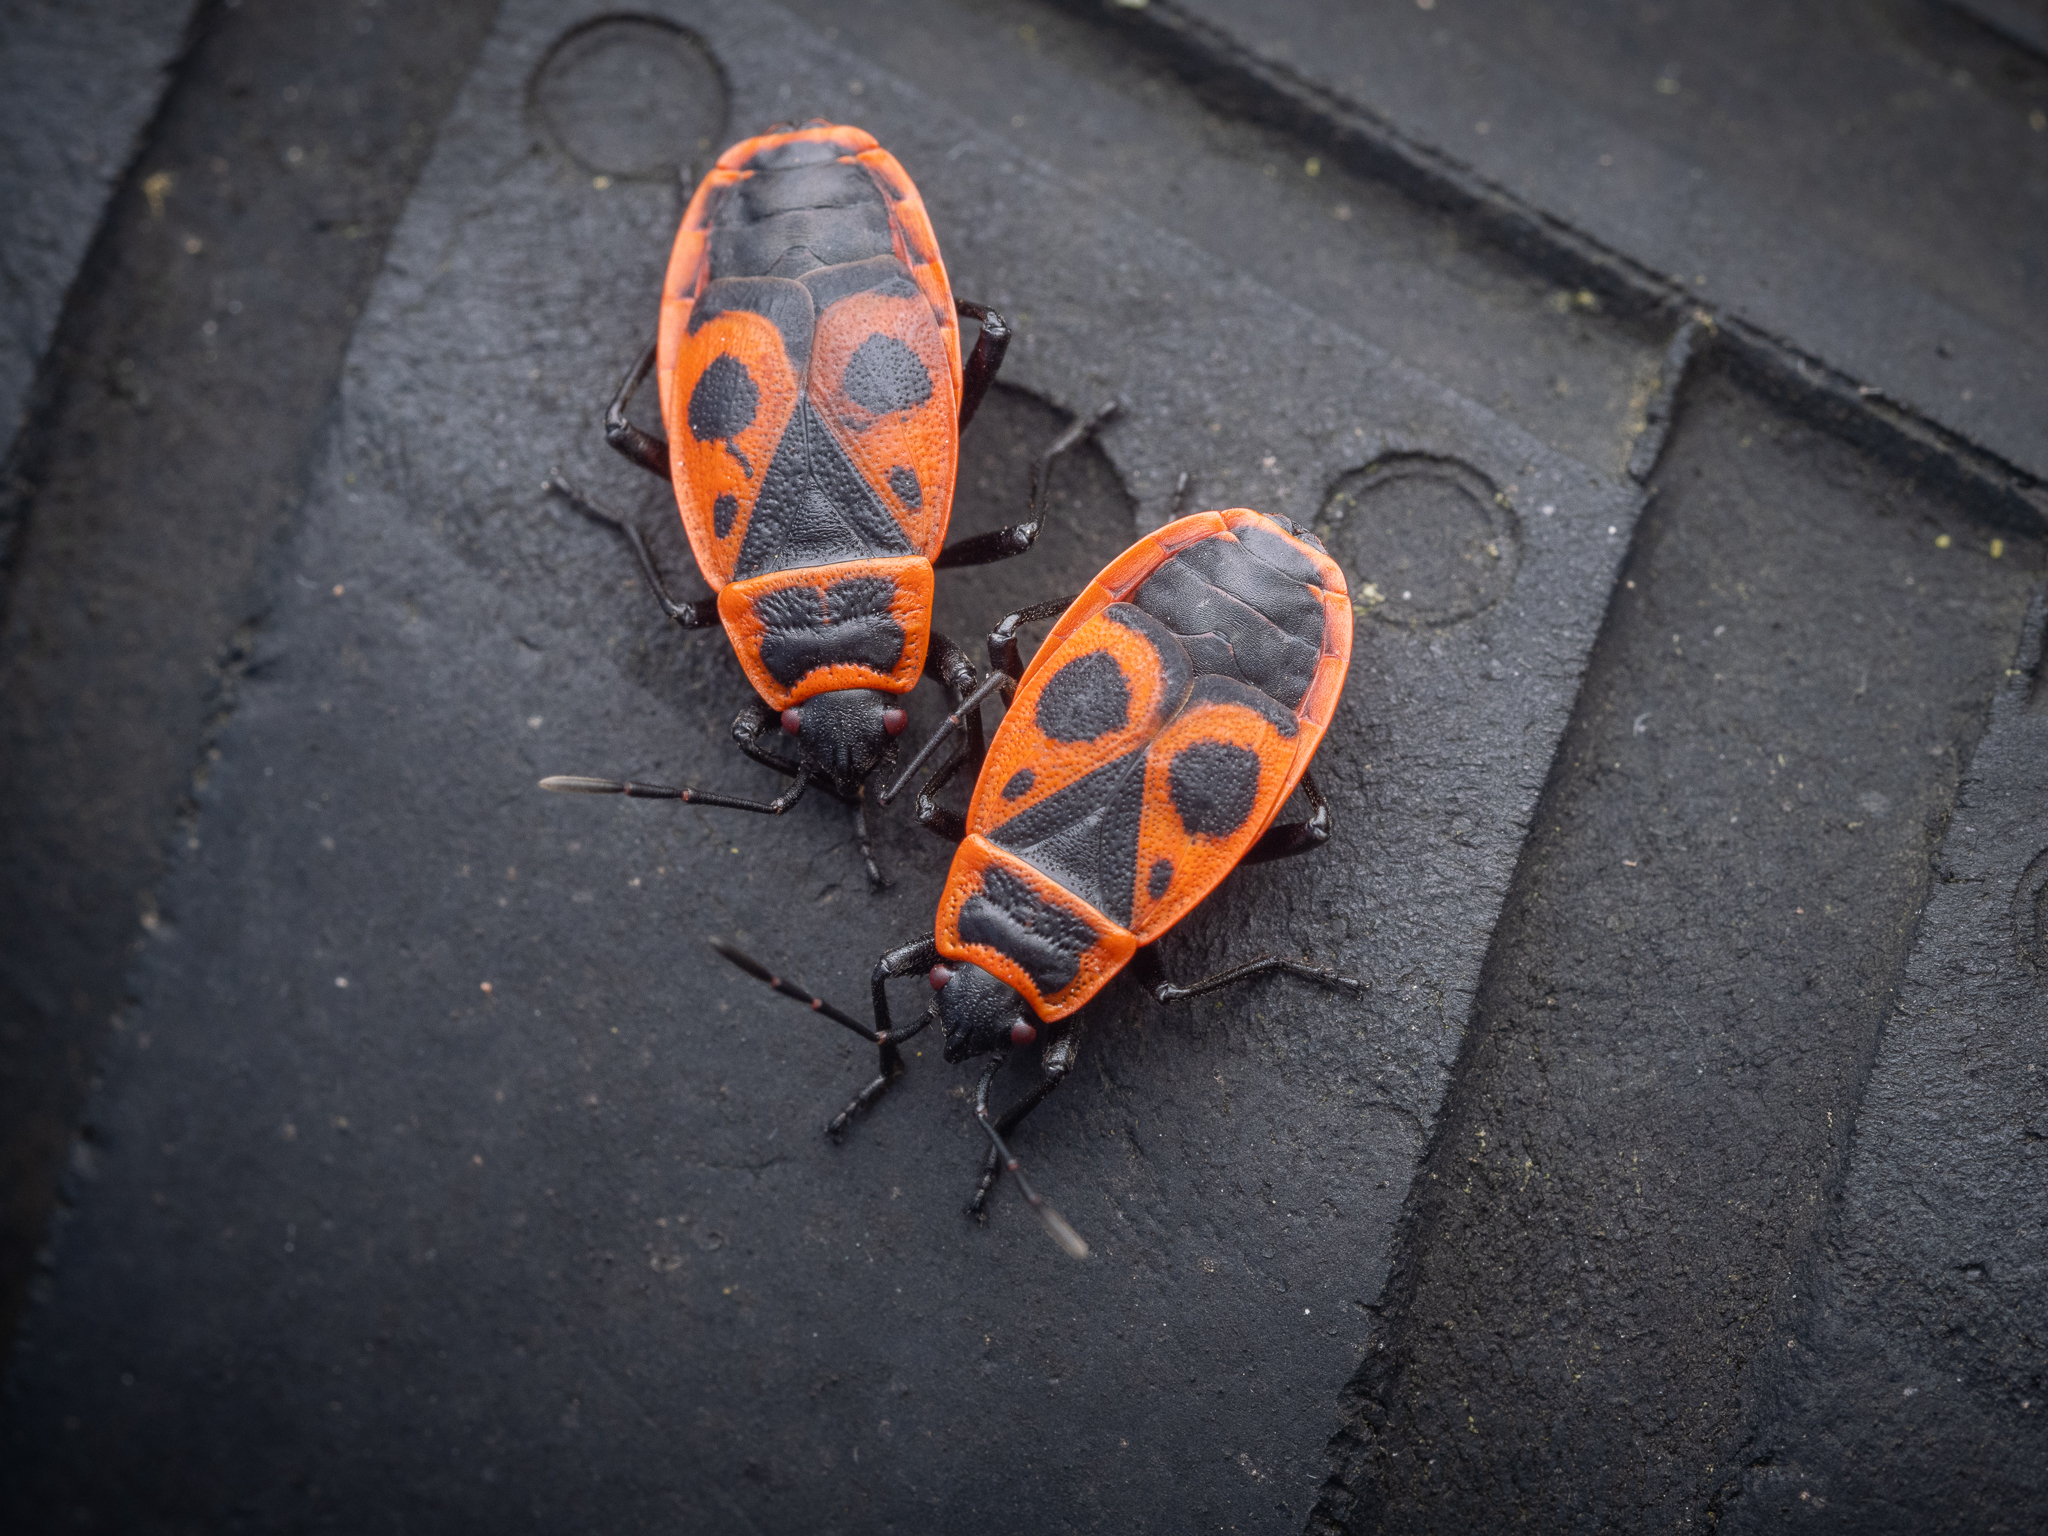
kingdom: Animalia
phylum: Arthropoda
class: Insecta
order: Hemiptera
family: Pyrrhocoridae
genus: Pyrrhocoris
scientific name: Pyrrhocoris apterus
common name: Firebug
